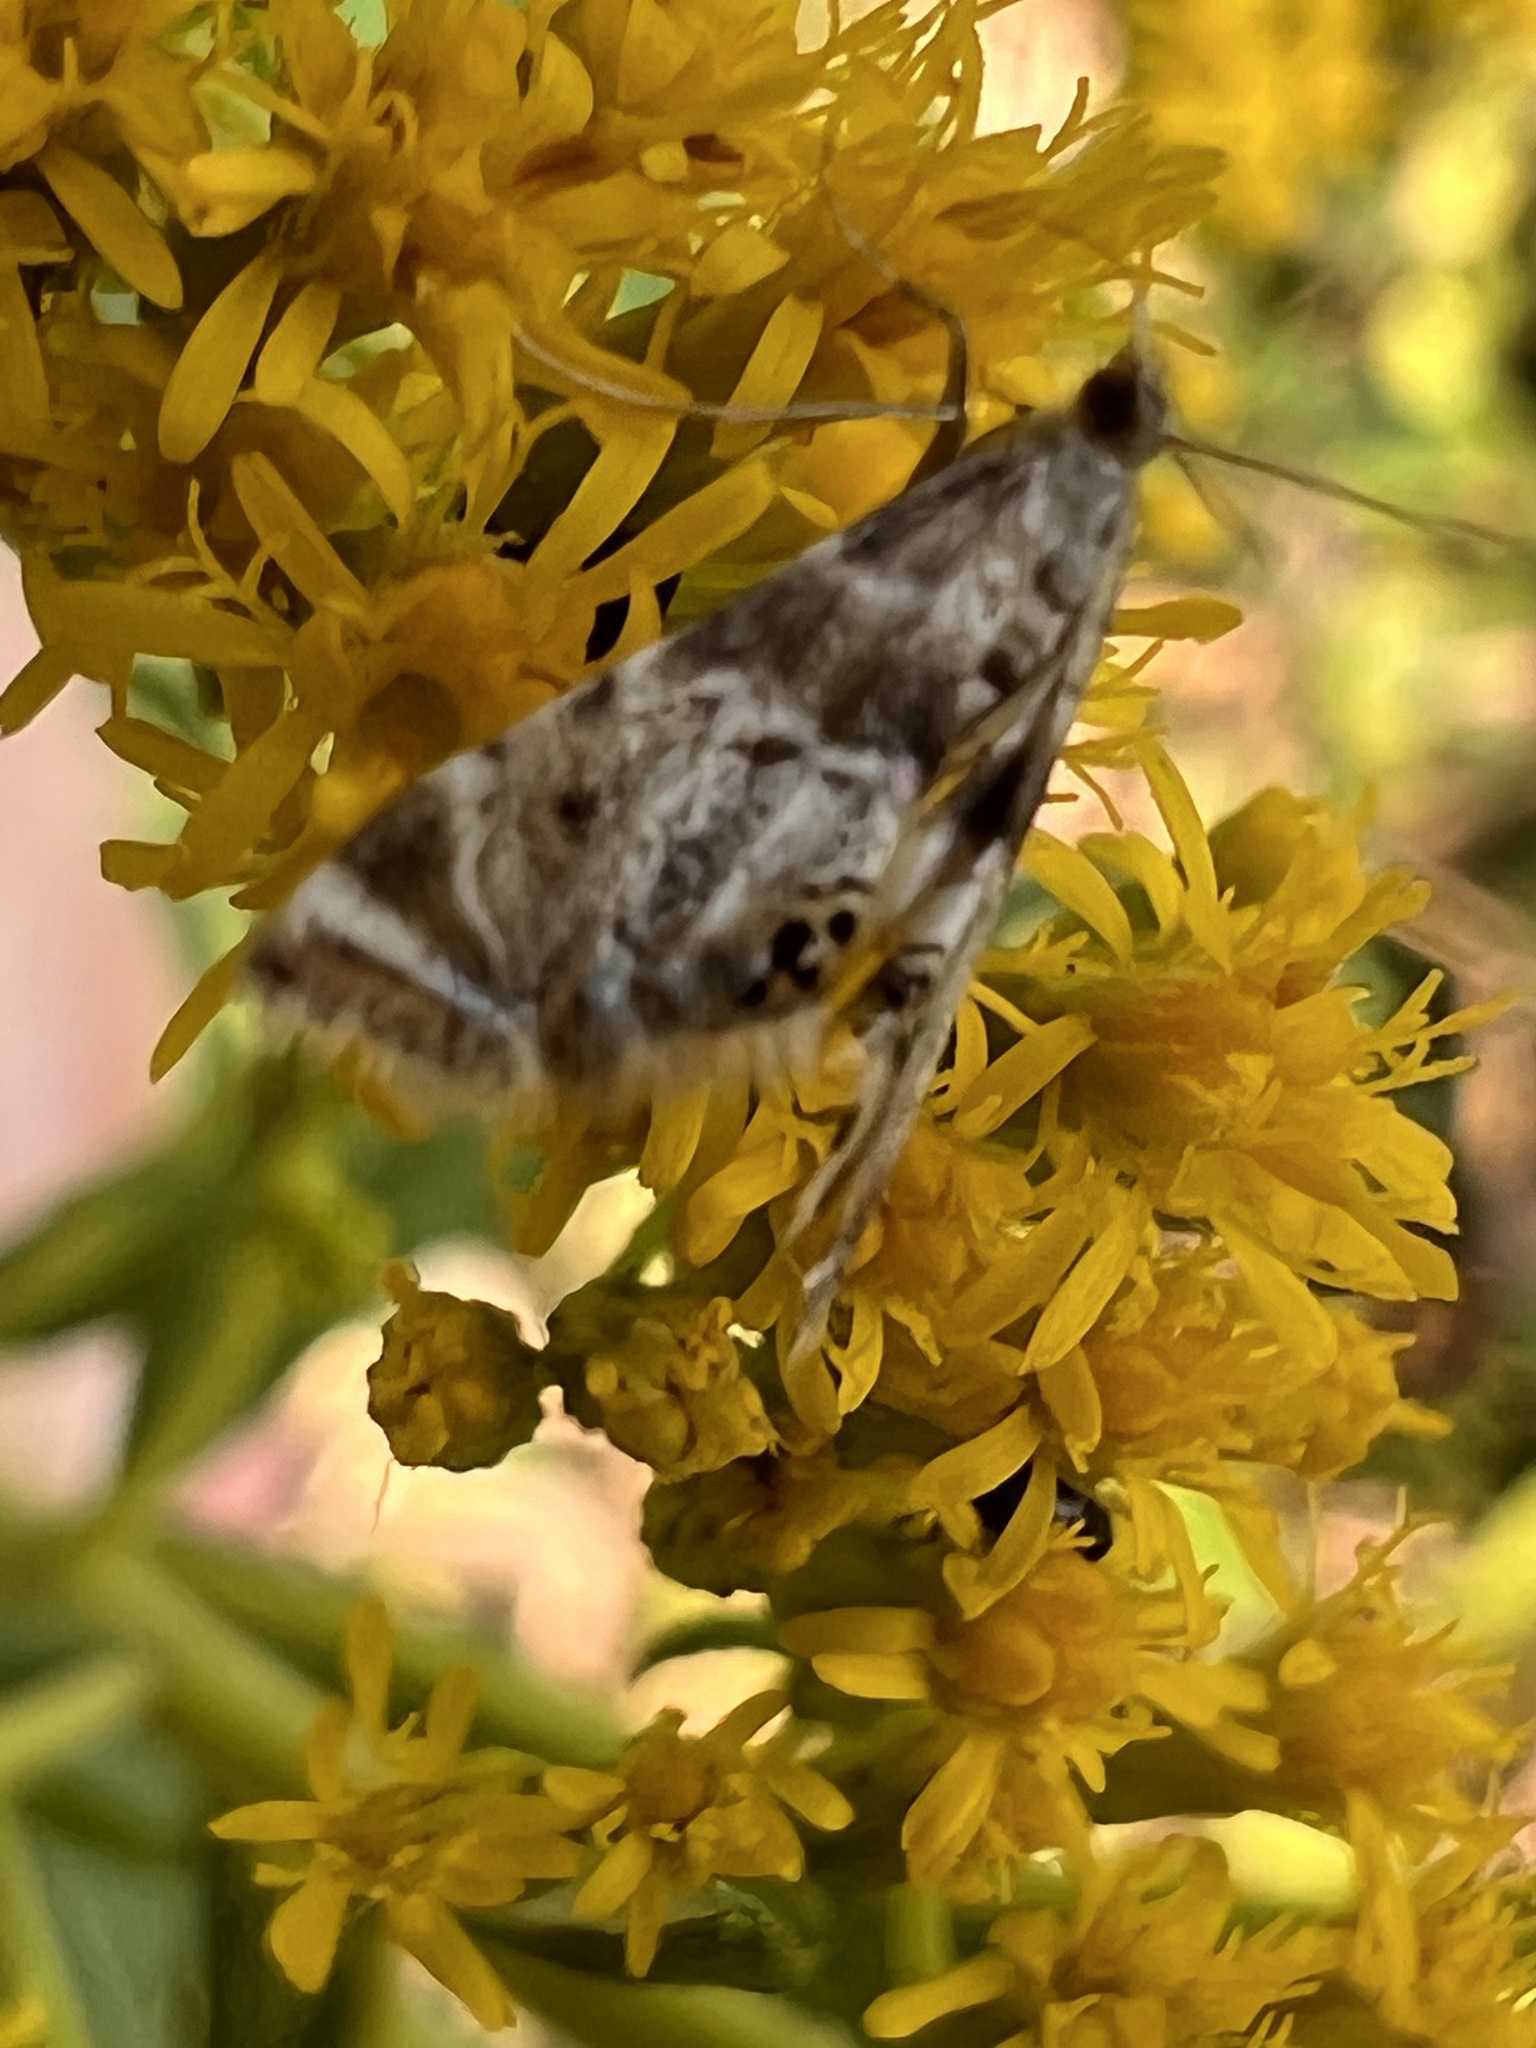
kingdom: Animalia
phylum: Arthropoda
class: Insecta
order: Lepidoptera
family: Crambidae
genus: Petrophila
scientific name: Petrophila fulicalis
